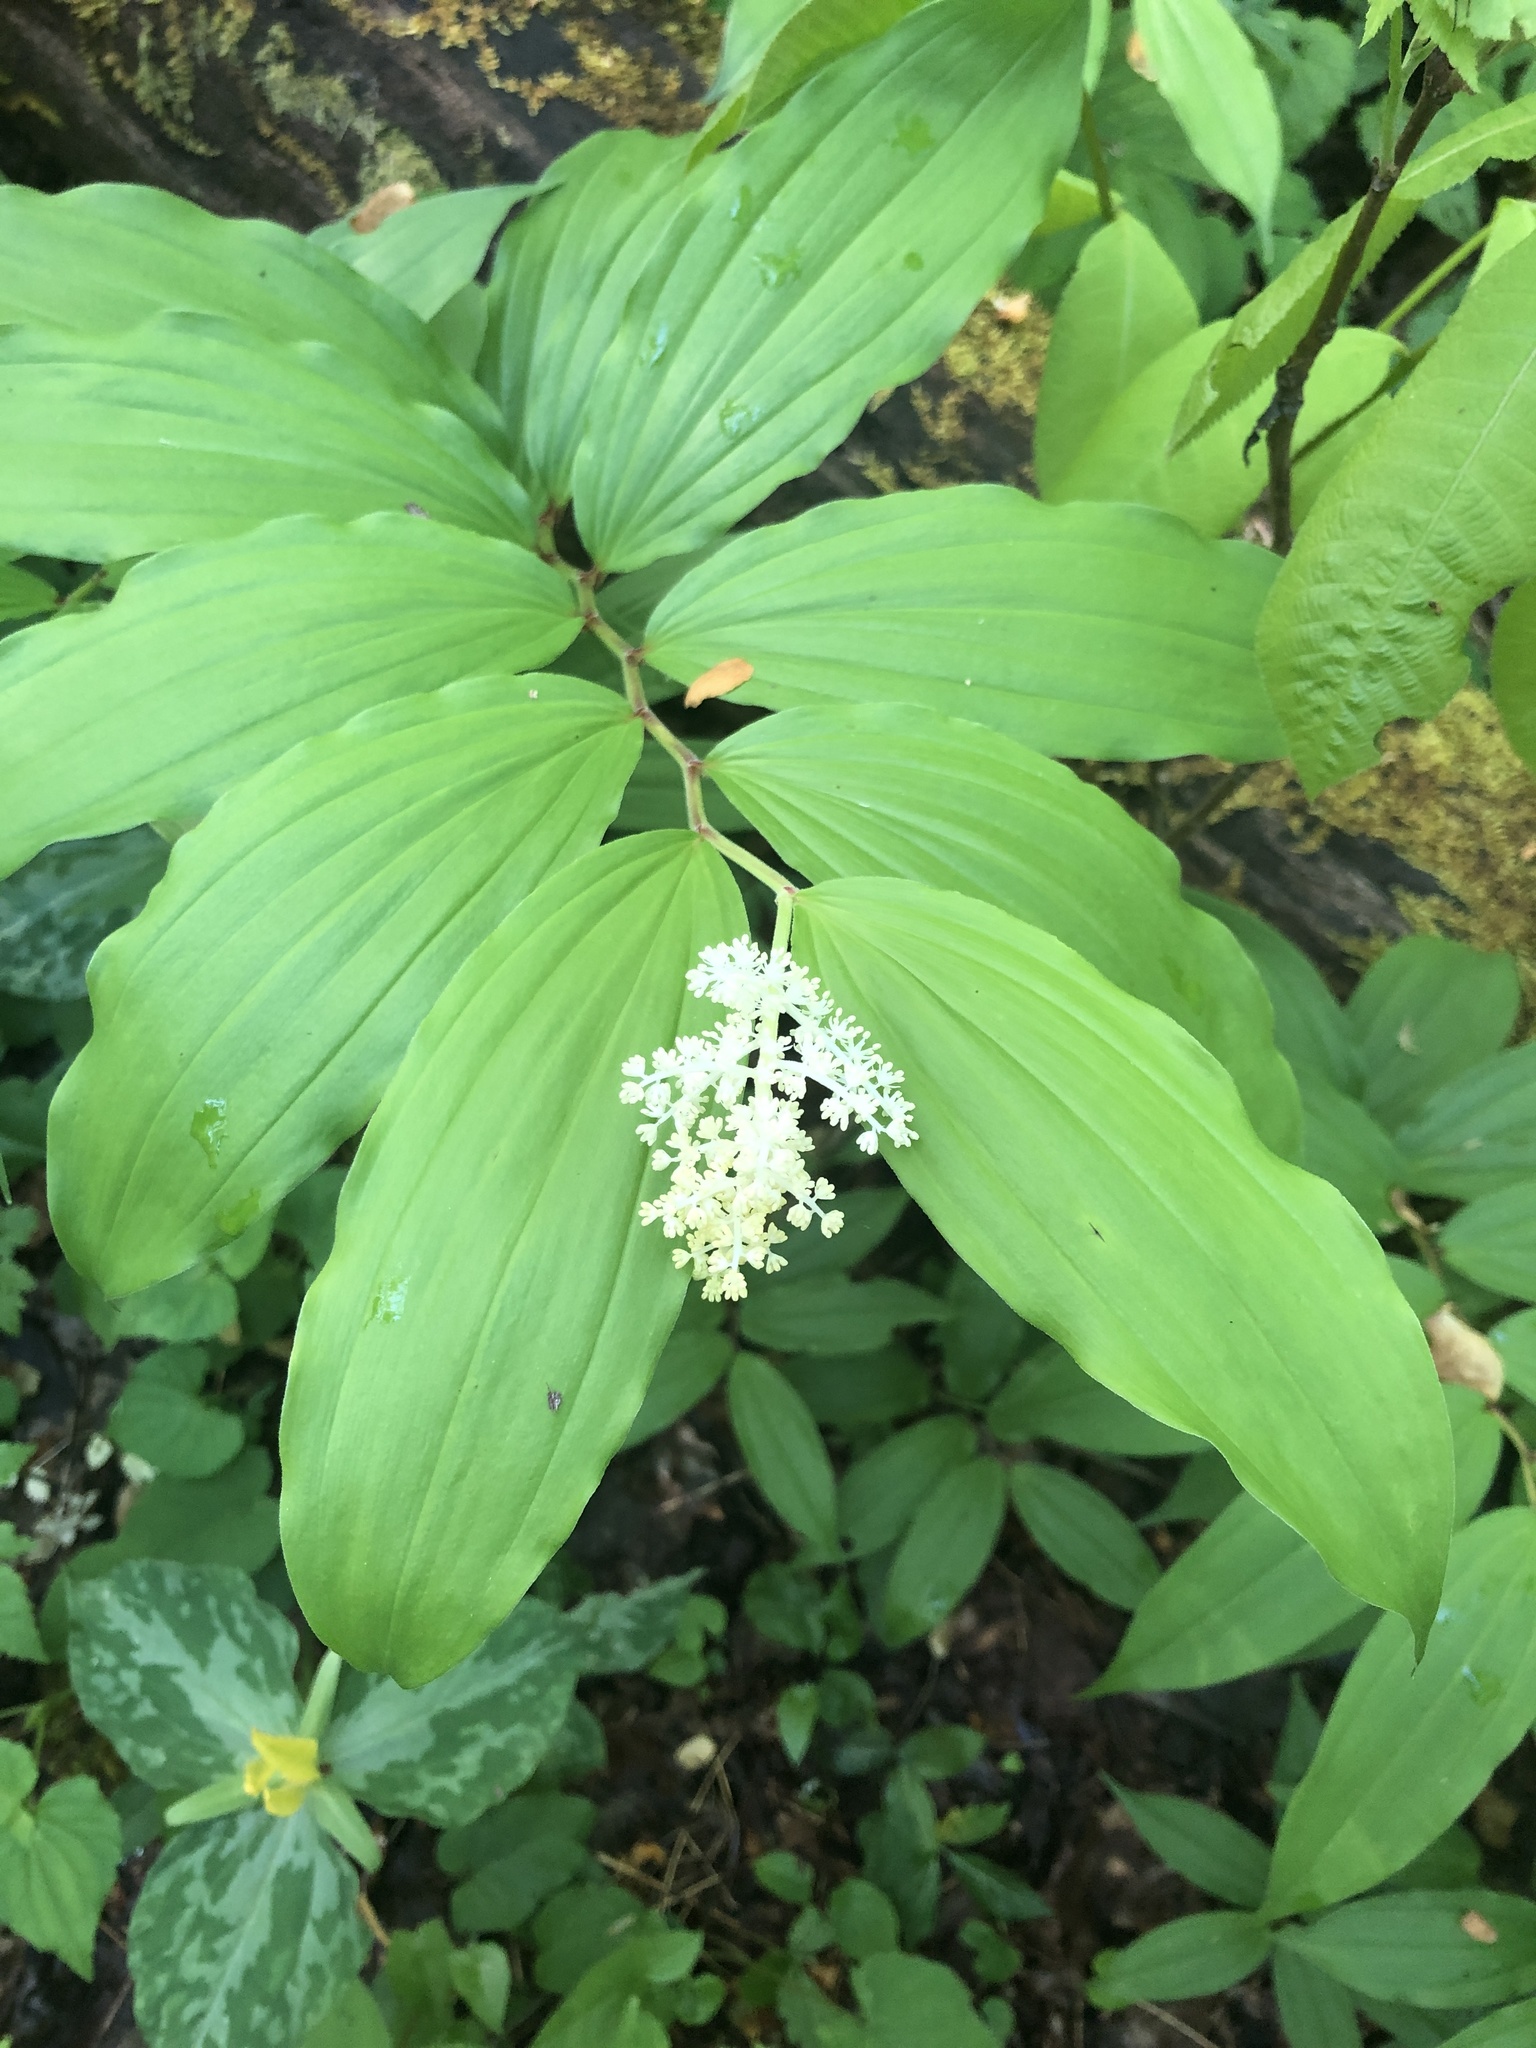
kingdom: Plantae
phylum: Tracheophyta
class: Liliopsida
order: Asparagales
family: Asparagaceae
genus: Maianthemum
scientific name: Maianthemum racemosum
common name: False spikenard
